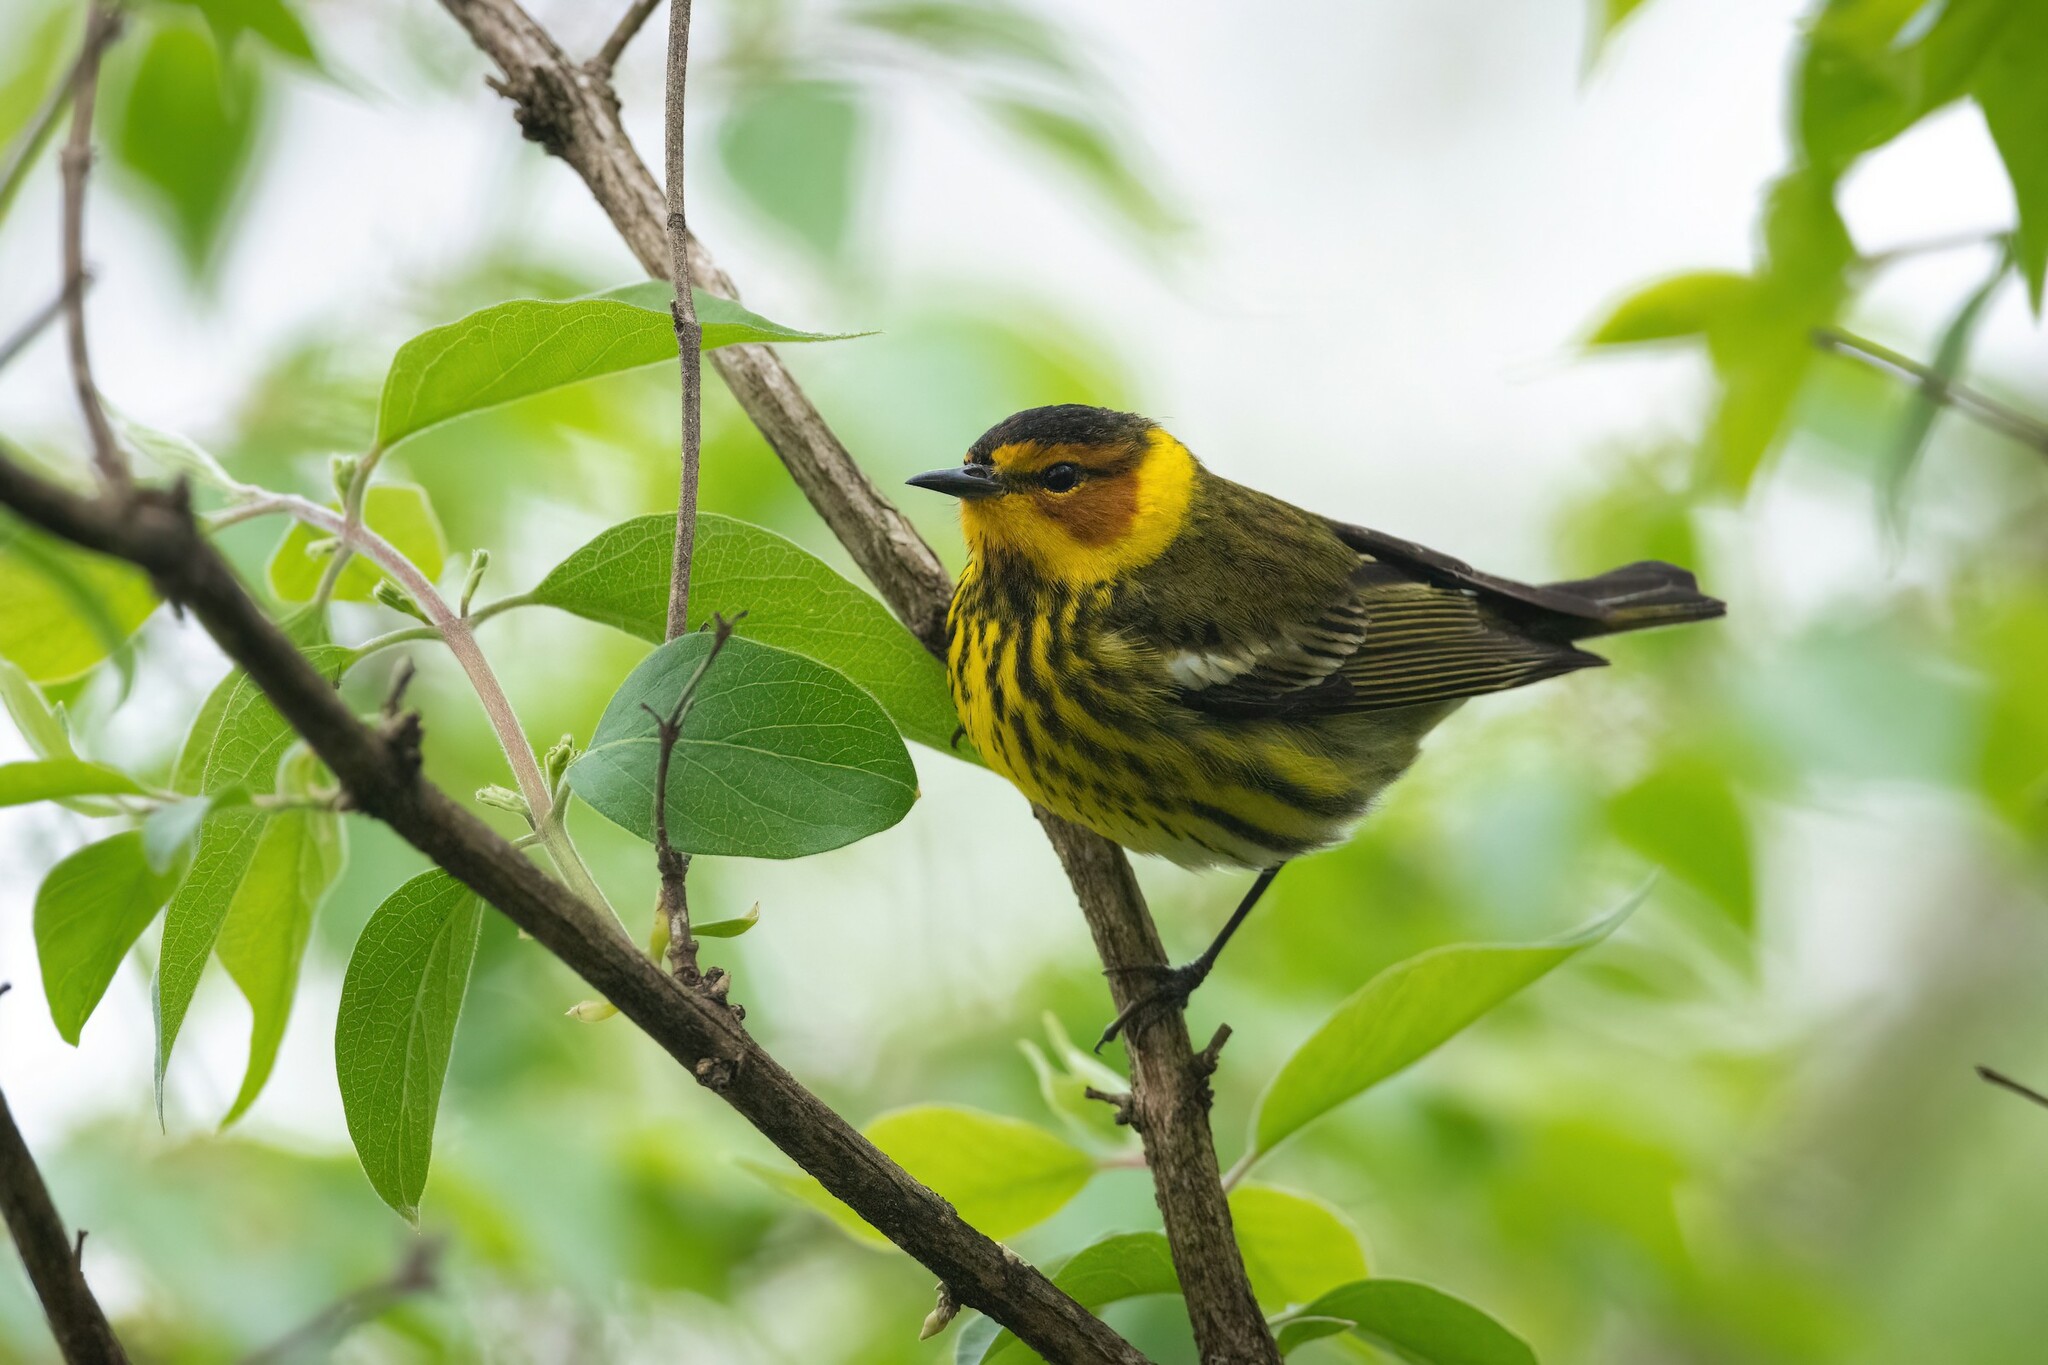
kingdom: Animalia
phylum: Chordata
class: Aves
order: Passeriformes
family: Parulidae
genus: Setophaga
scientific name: Setophaga tigrina
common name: Cape may warbler
